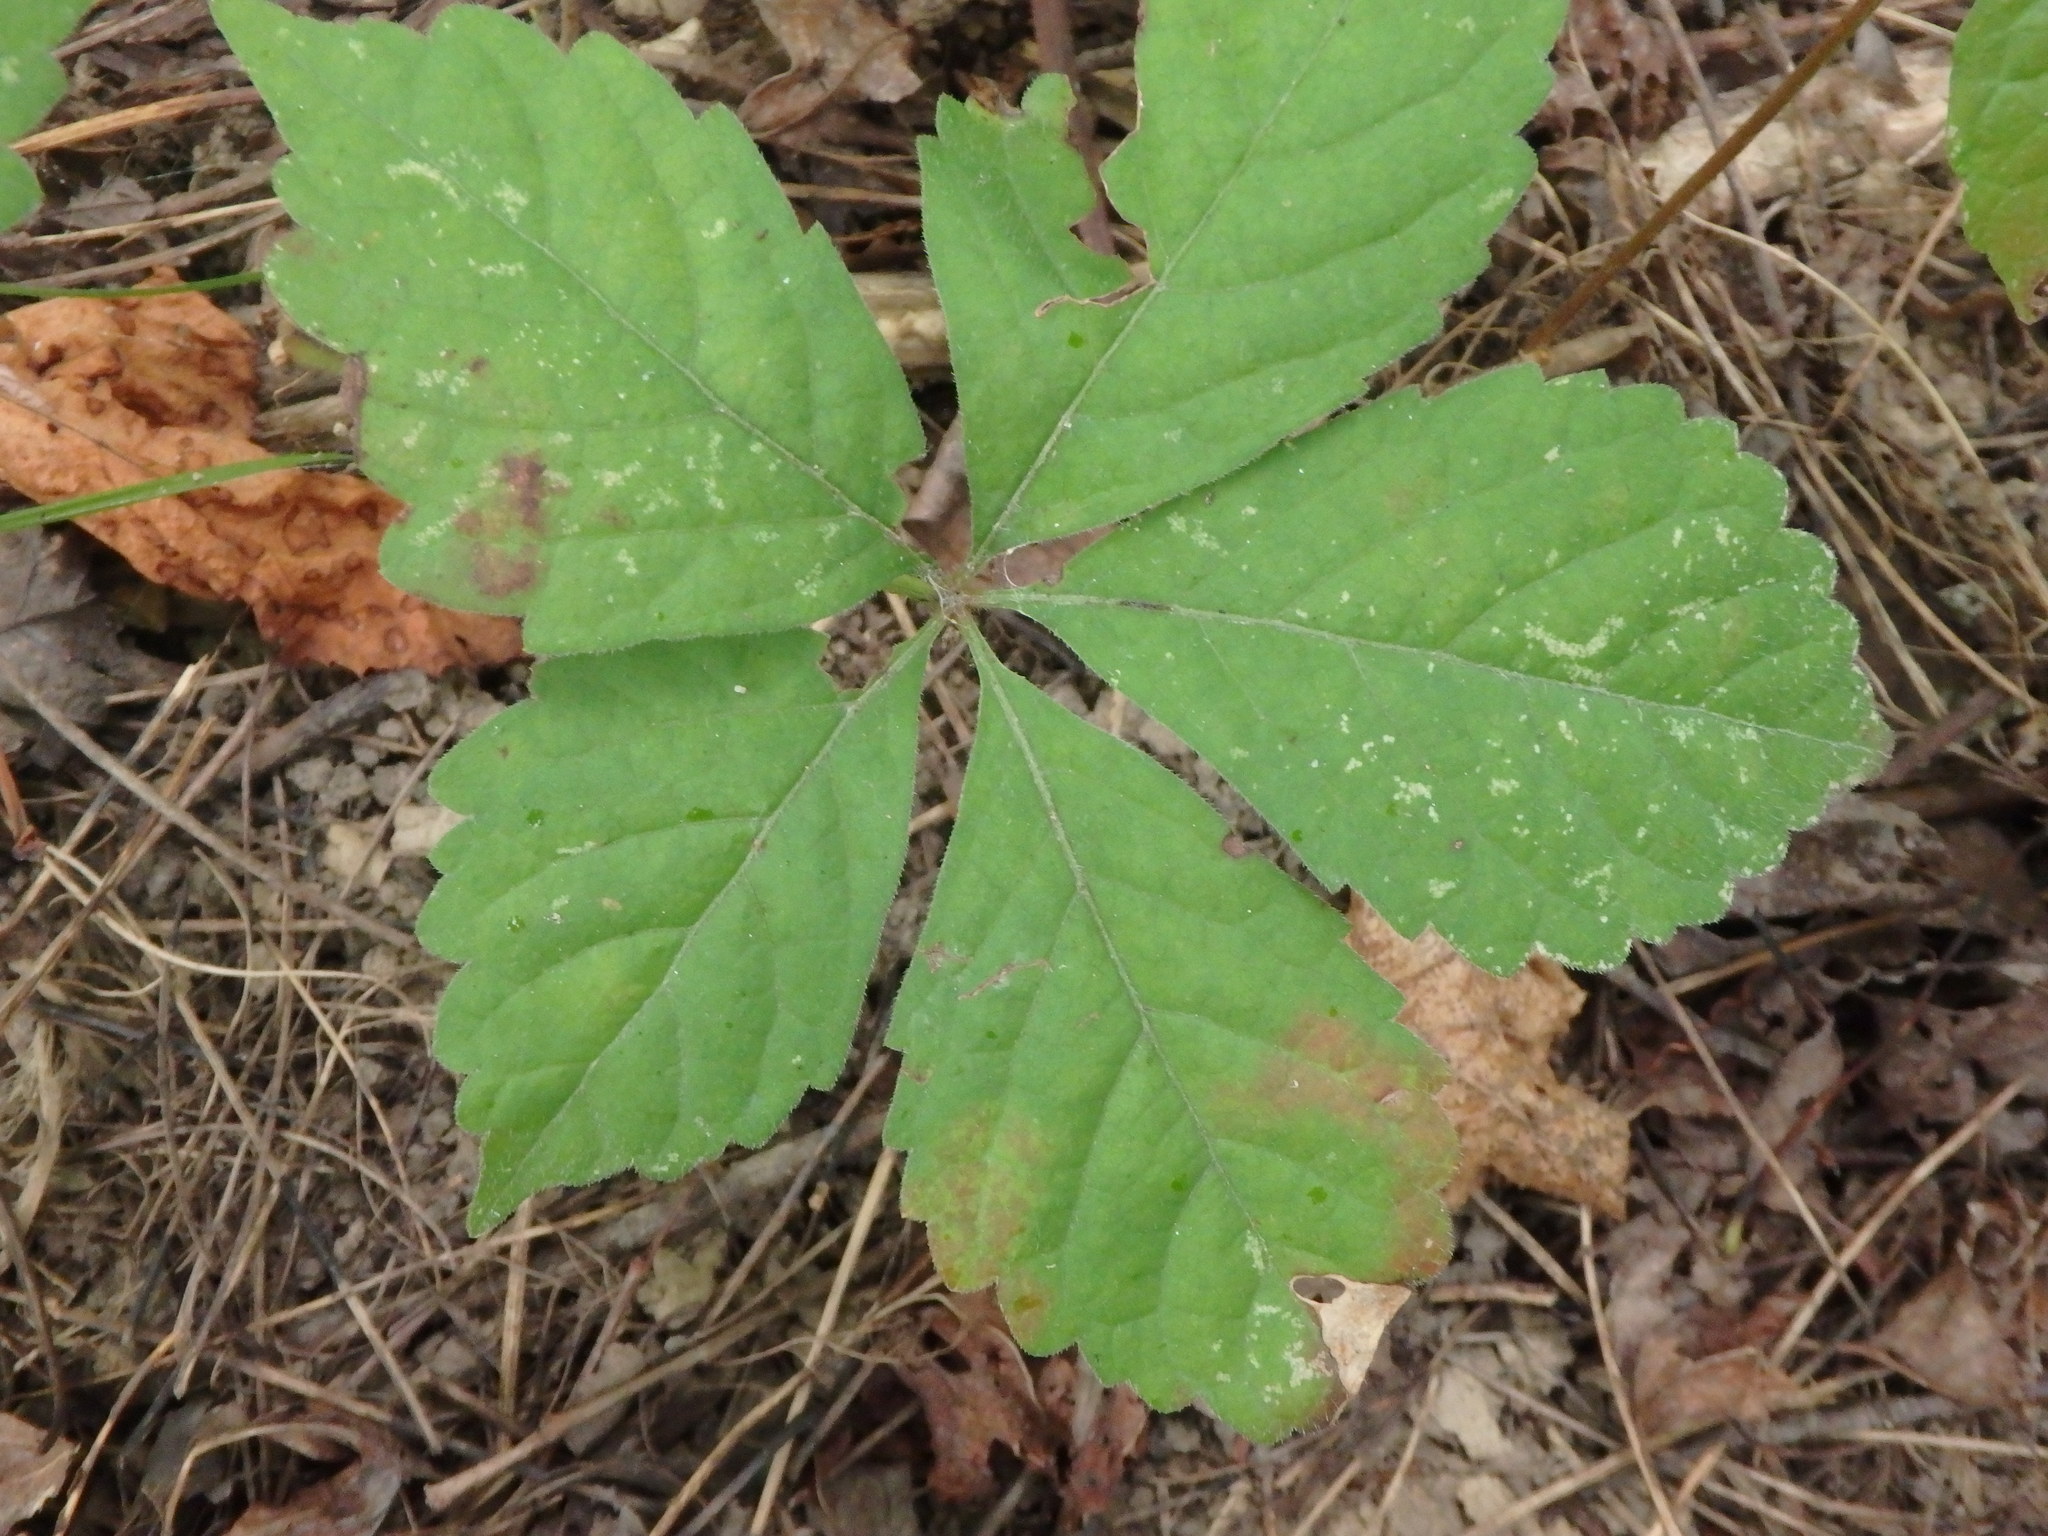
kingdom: Plantae
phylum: Tracheophyta
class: Magnoliopsida
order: Vitales
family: Vitaceae
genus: Parthenocissus
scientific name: Parthenocissus quinquefolia
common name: Virginia-creeper
